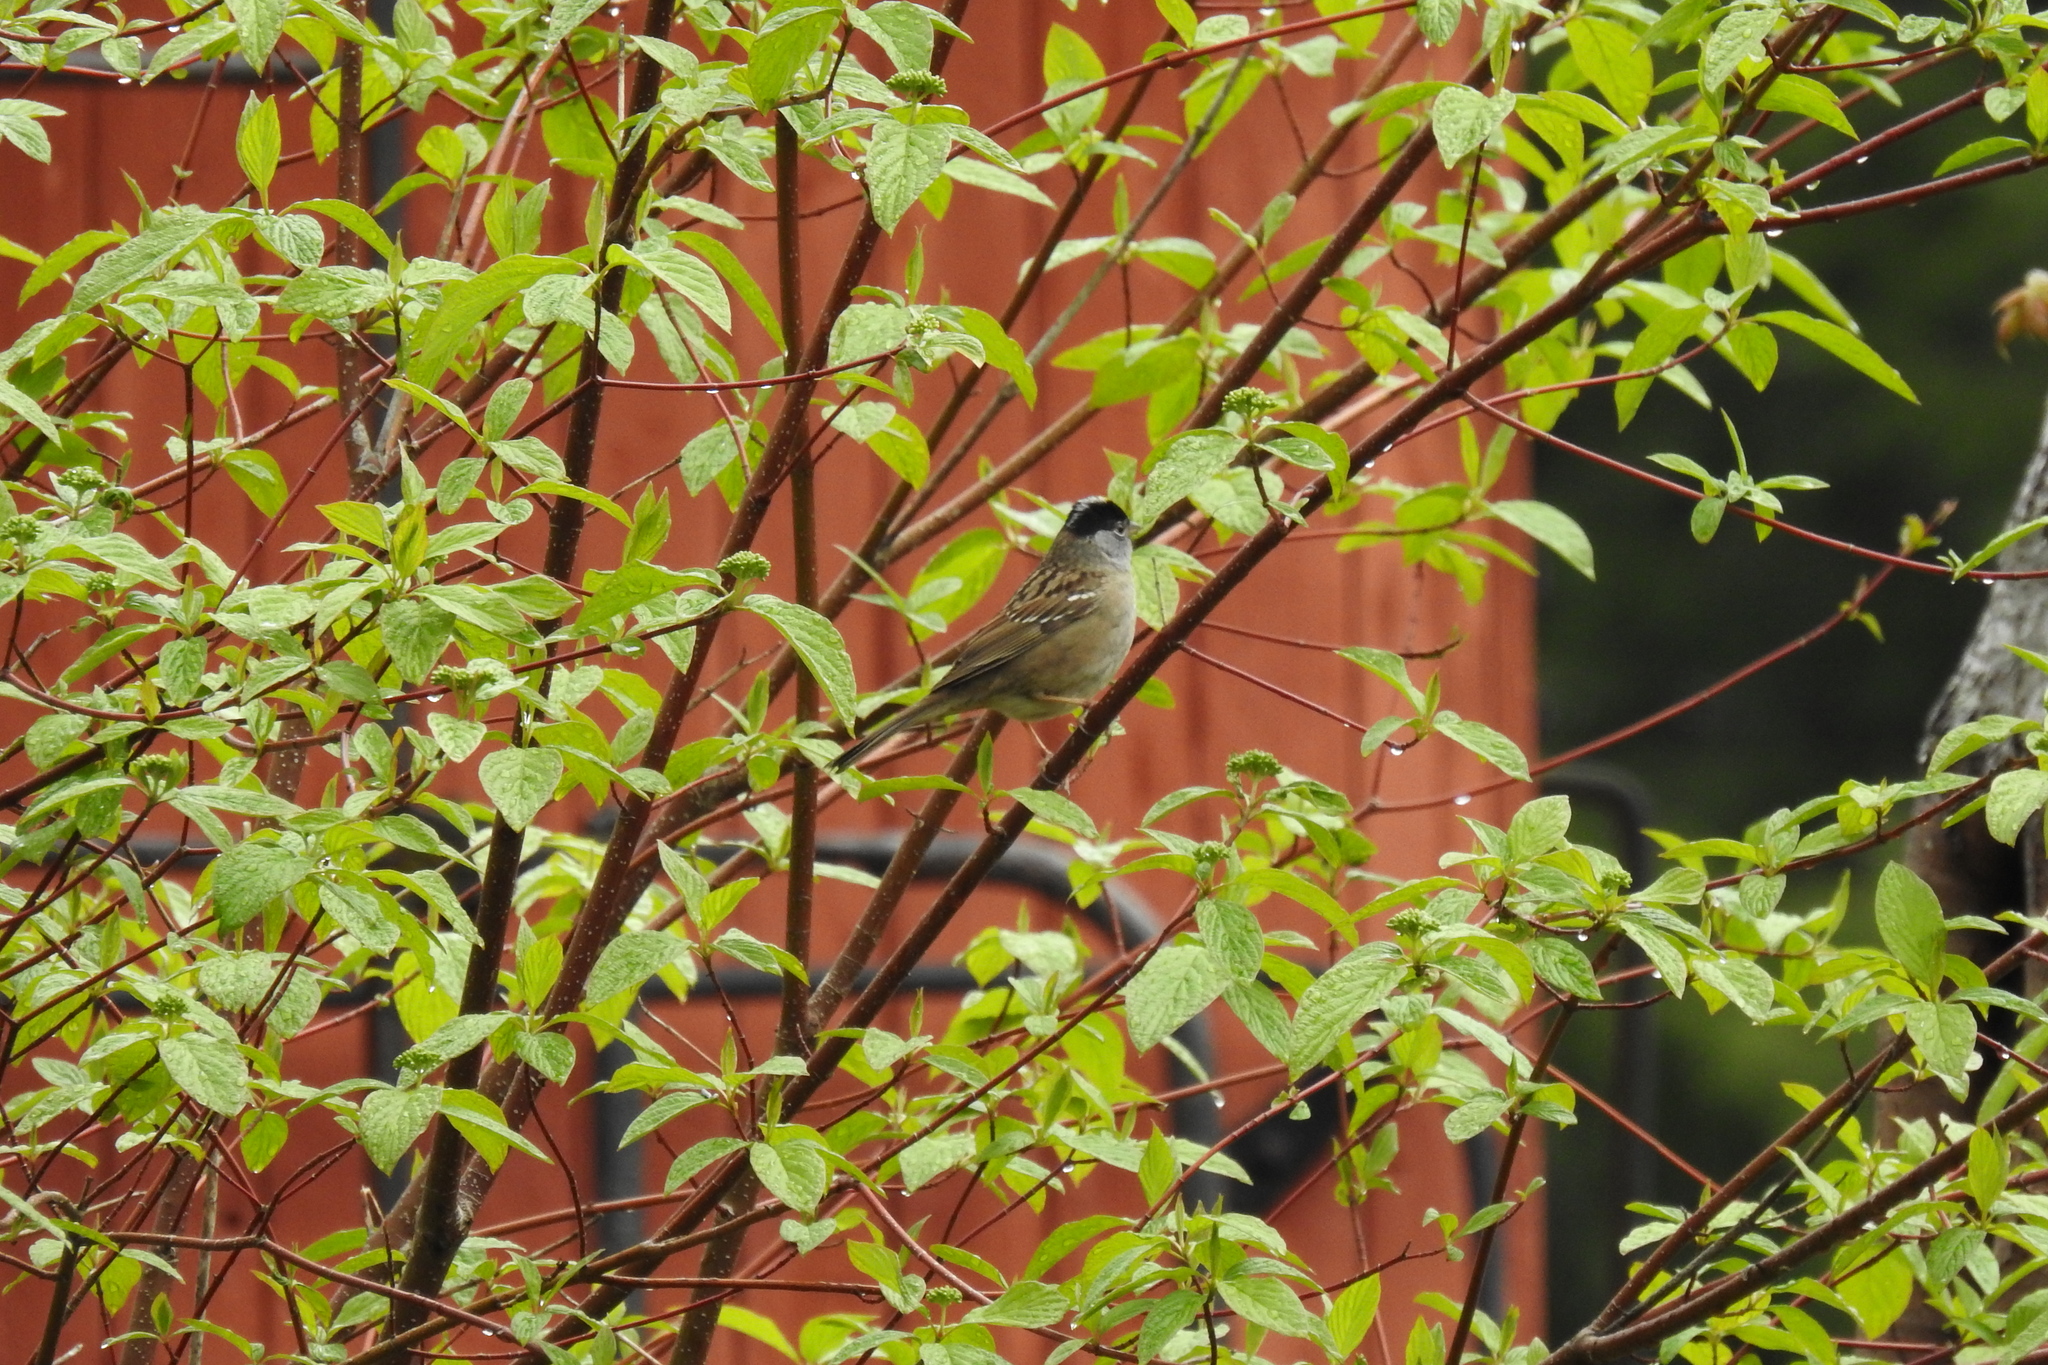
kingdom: Animalia
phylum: Chordata
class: Aves
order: Passeriformes
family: Passerellidae
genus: Zonotrichia
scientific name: Zonotrichia atricapilla
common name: Golden-crowned sparrow
